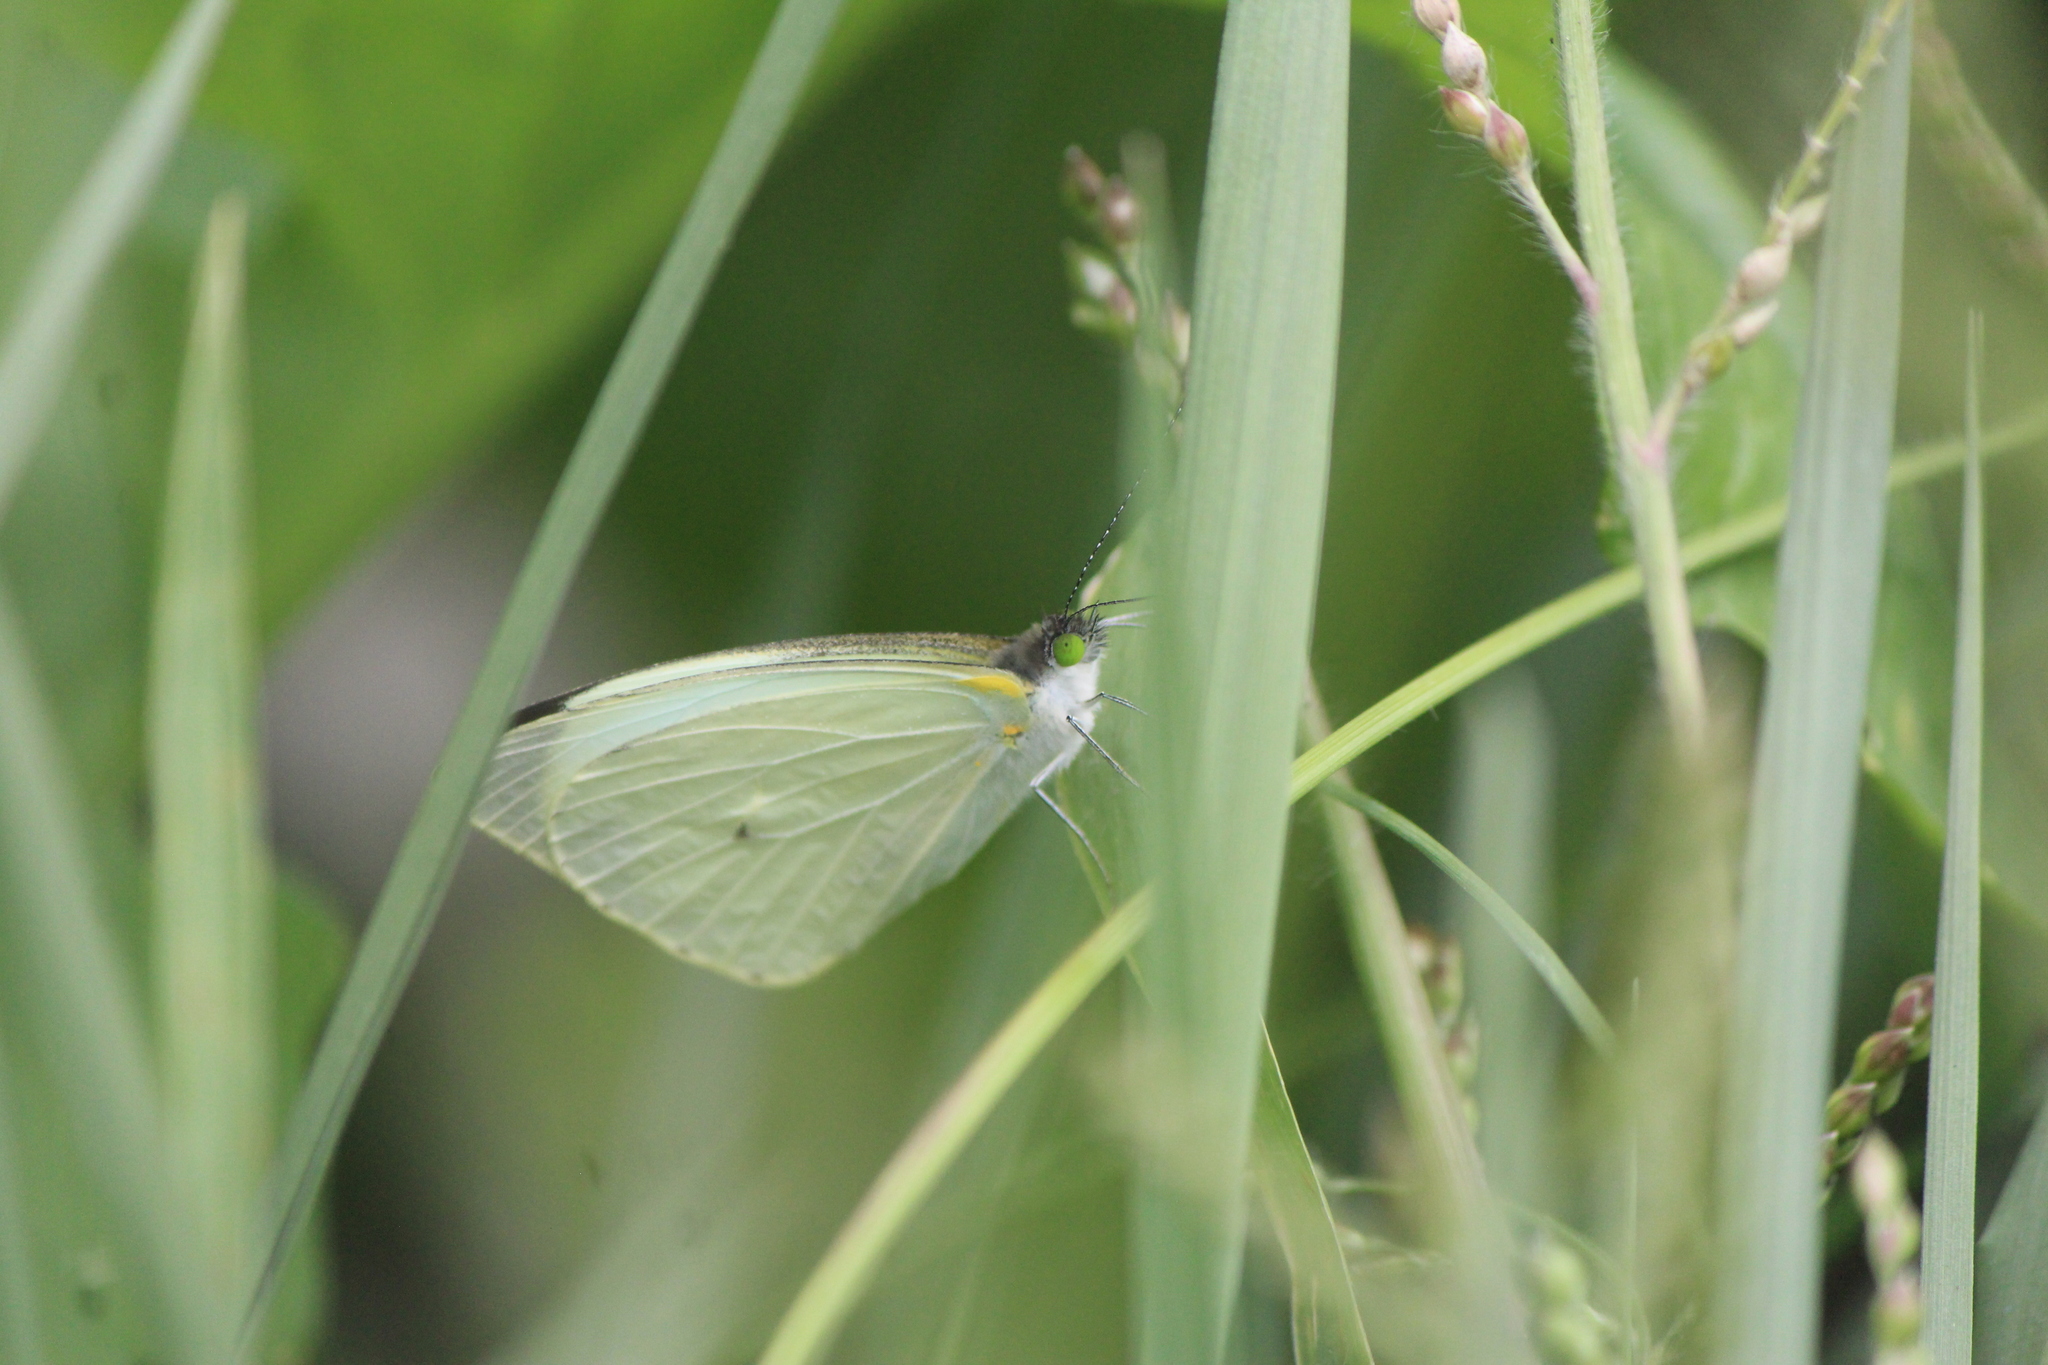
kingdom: Animalia
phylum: Arthropoda
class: Insecta
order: Lepidoptera
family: Pieridae
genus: Leptophobia
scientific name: Leptophobia aripa
